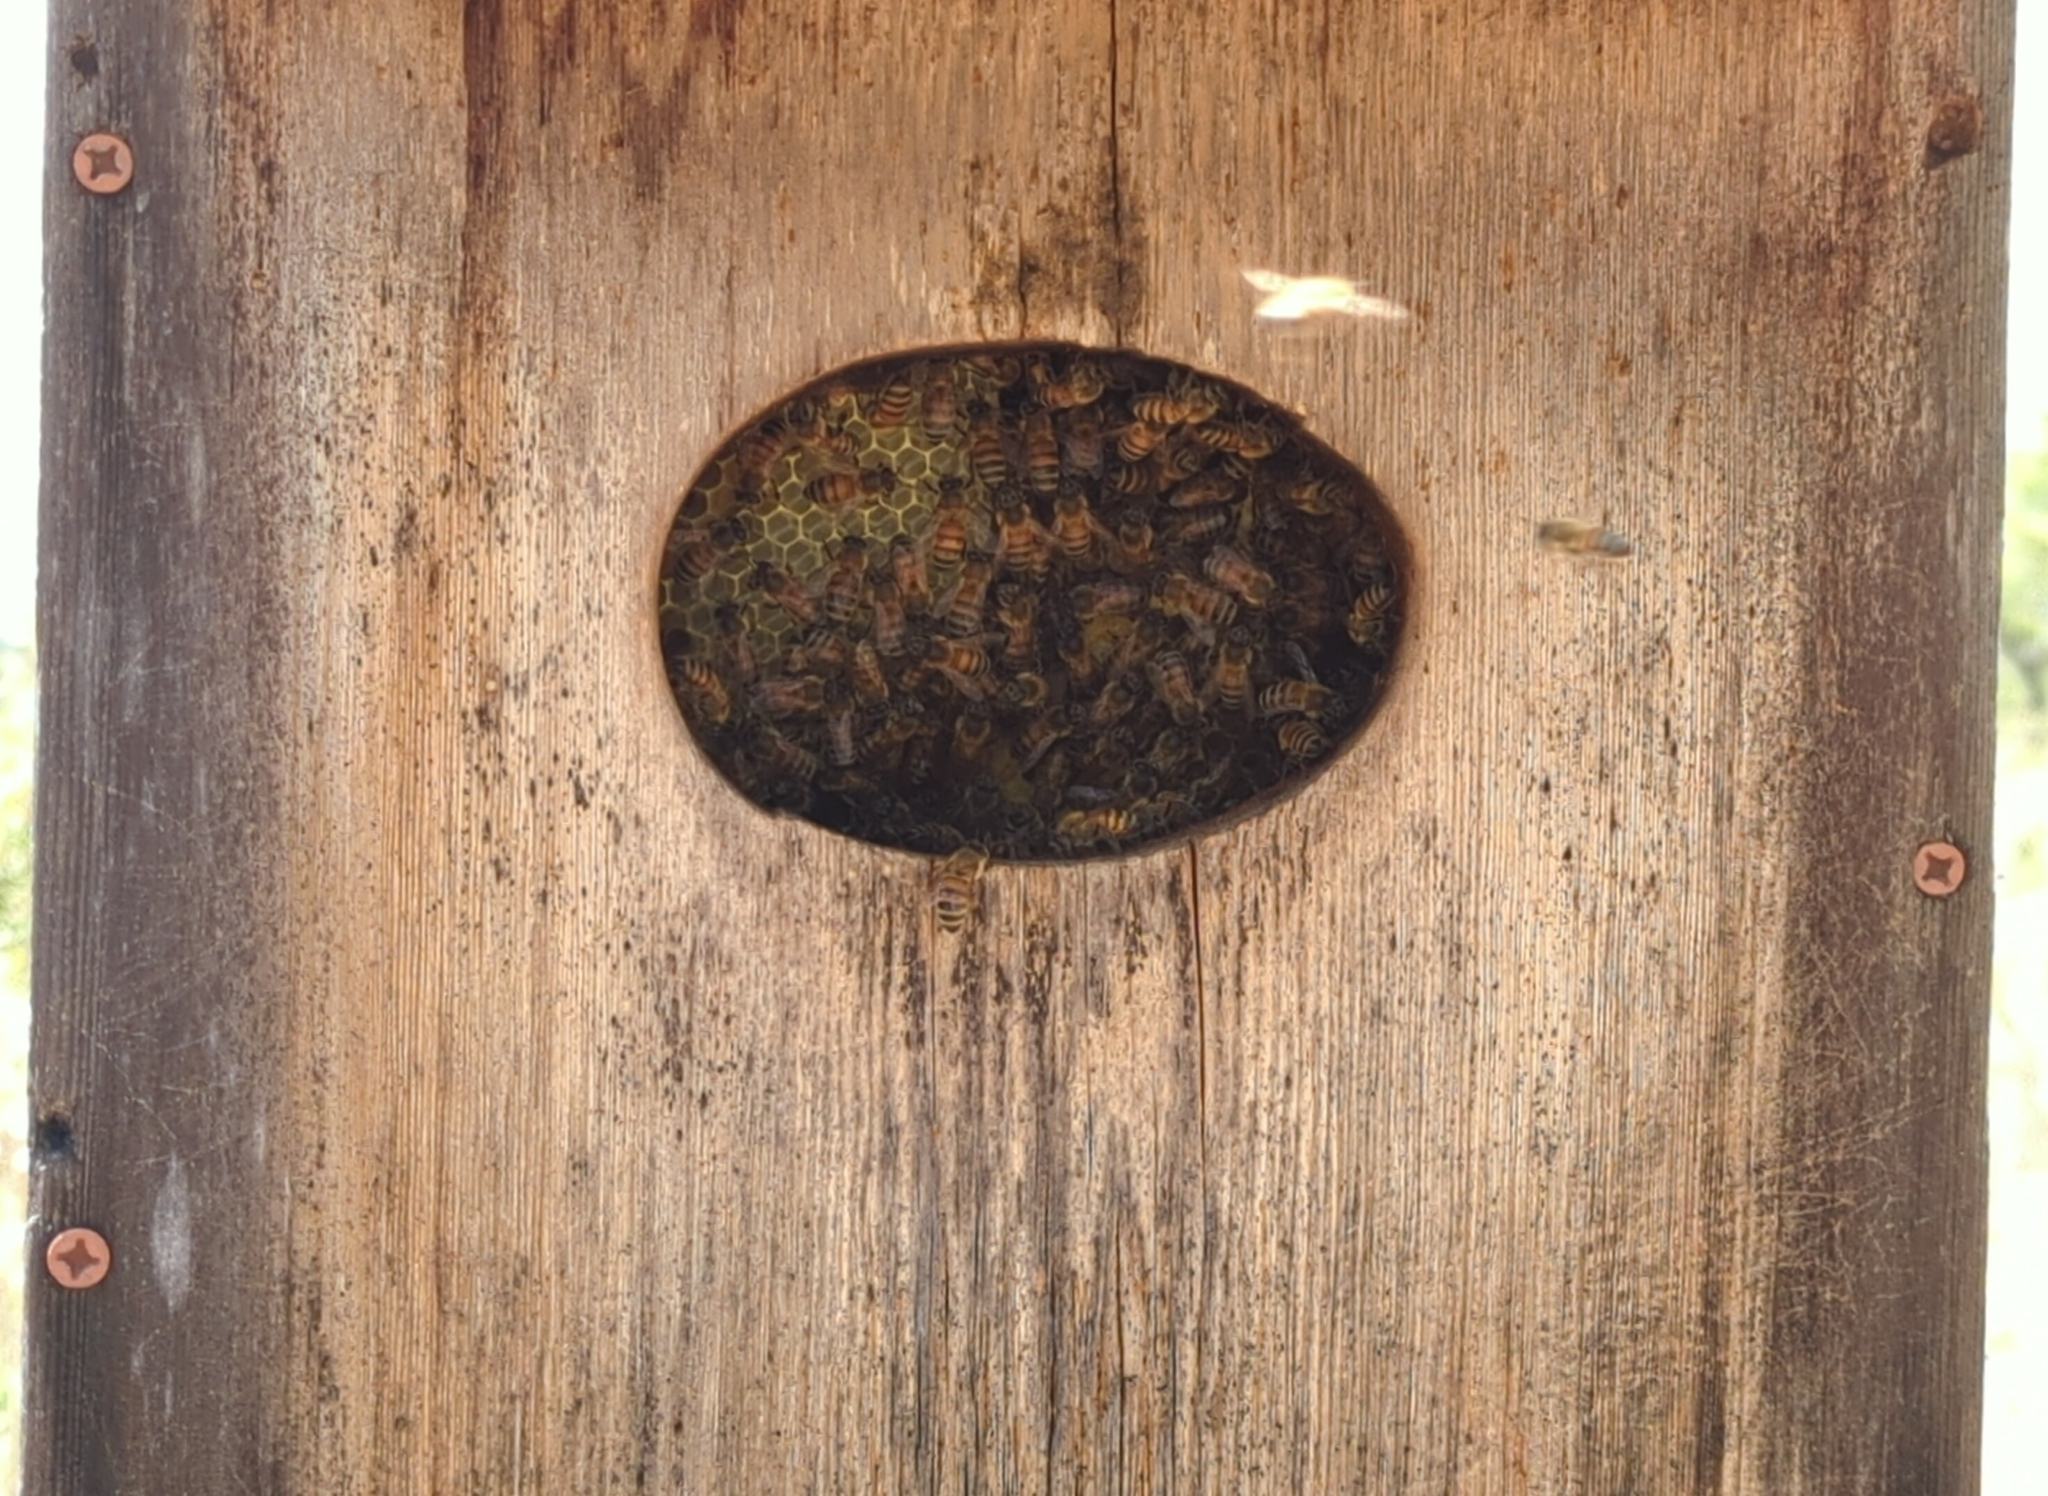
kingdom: Animalia
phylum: Arthropoda
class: Insecta
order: Hymenoptera
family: Apidae
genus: Apis
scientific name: Apis mellifera
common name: Honey bee
